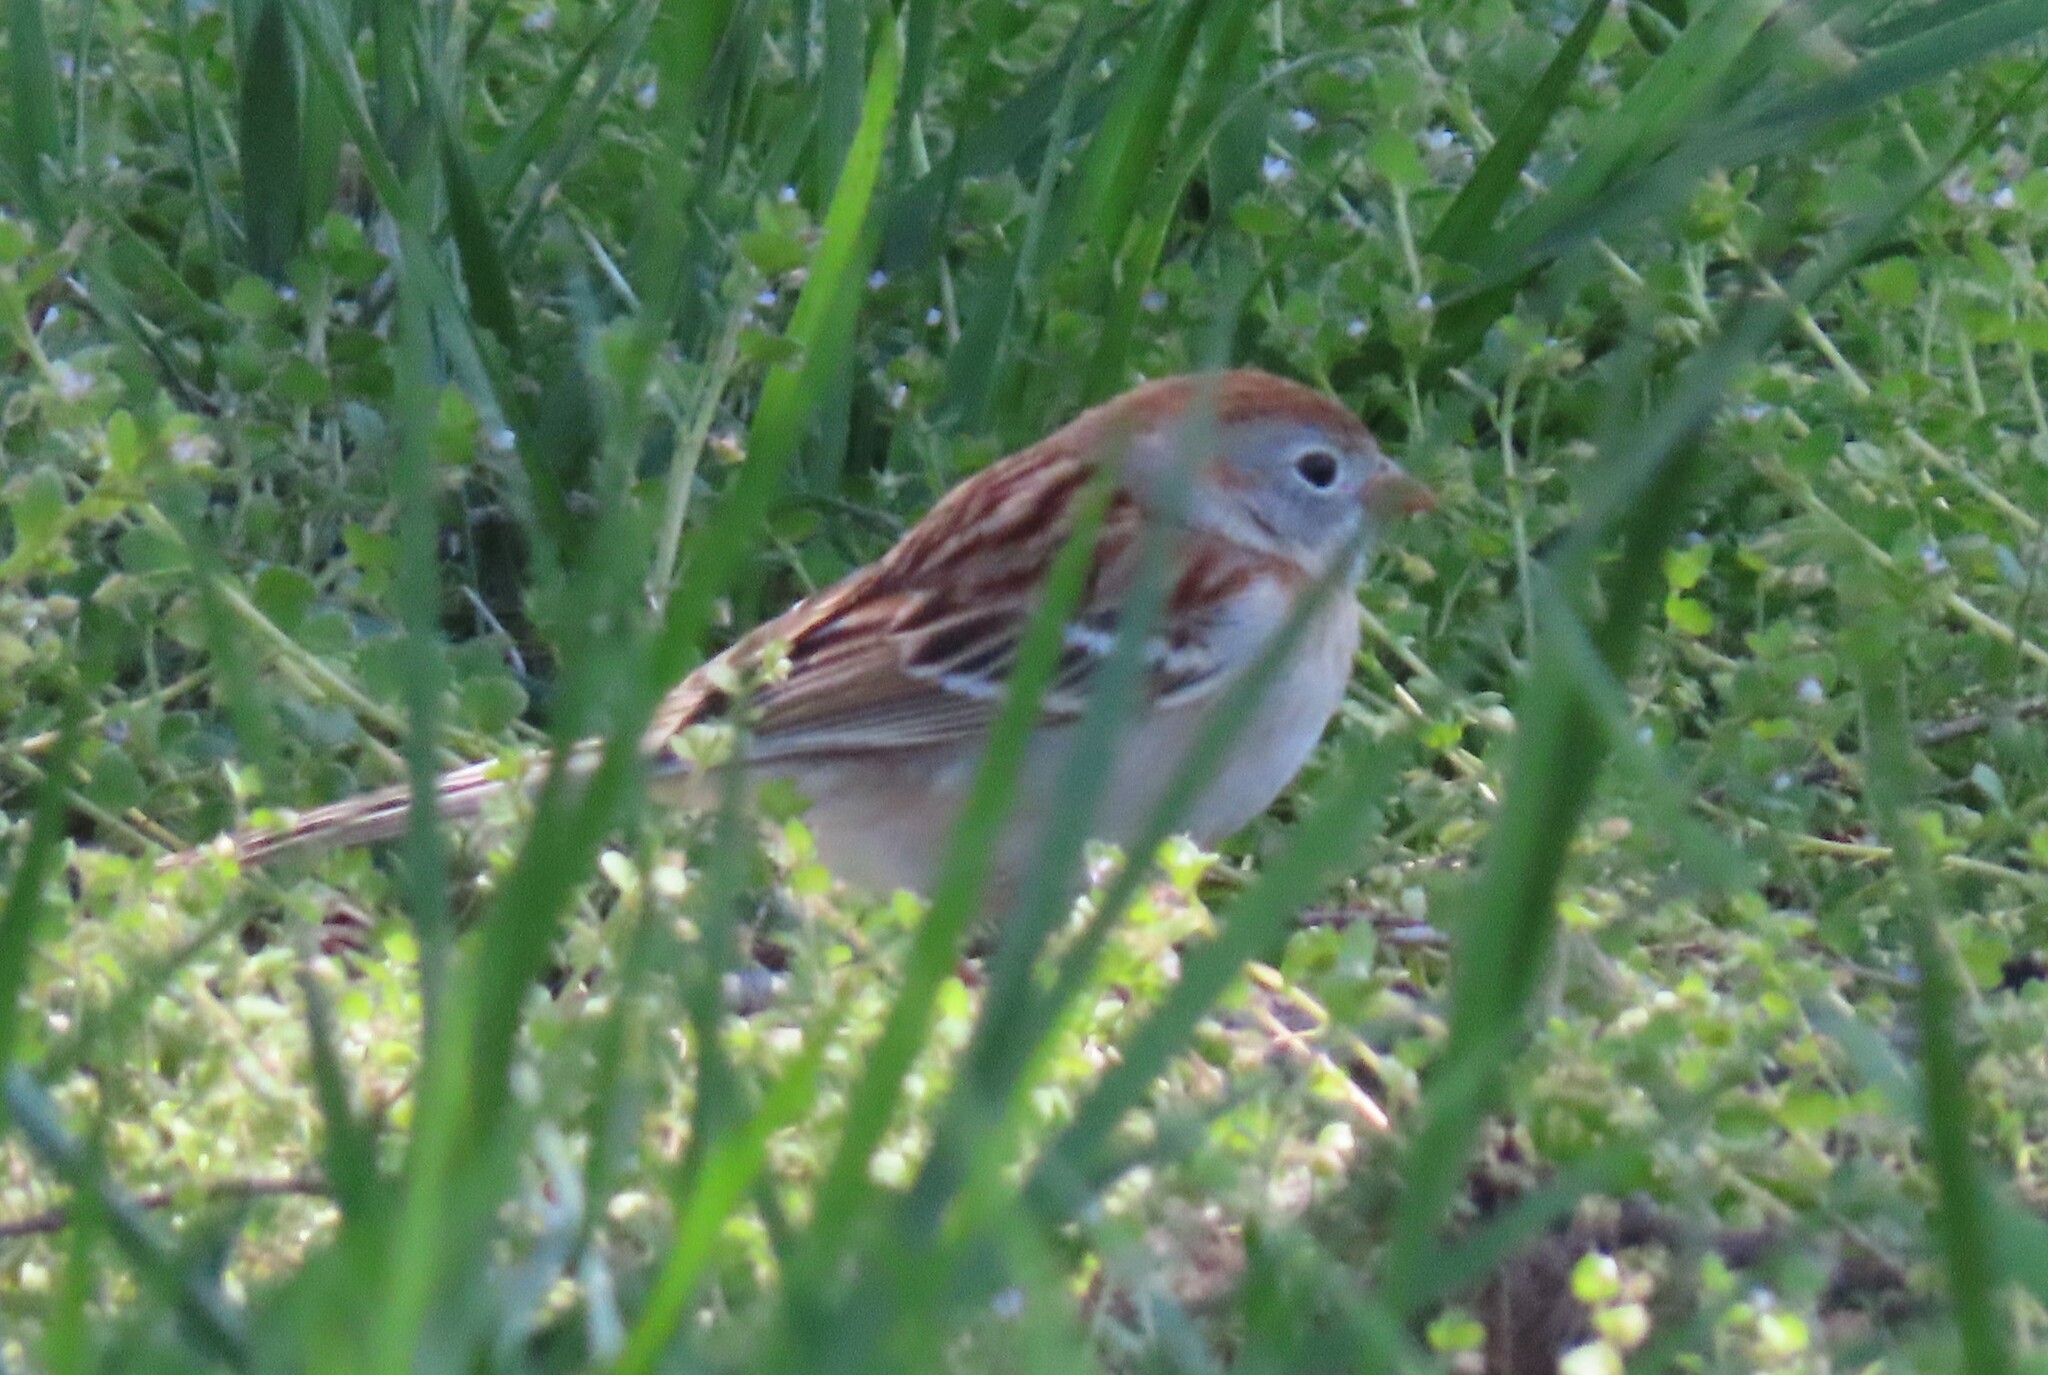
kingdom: Animalia
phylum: Chordata
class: Aves
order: Passeriformes
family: Passerellidae
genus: Spizella
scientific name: Spizella pusilla
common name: Field sparrow
